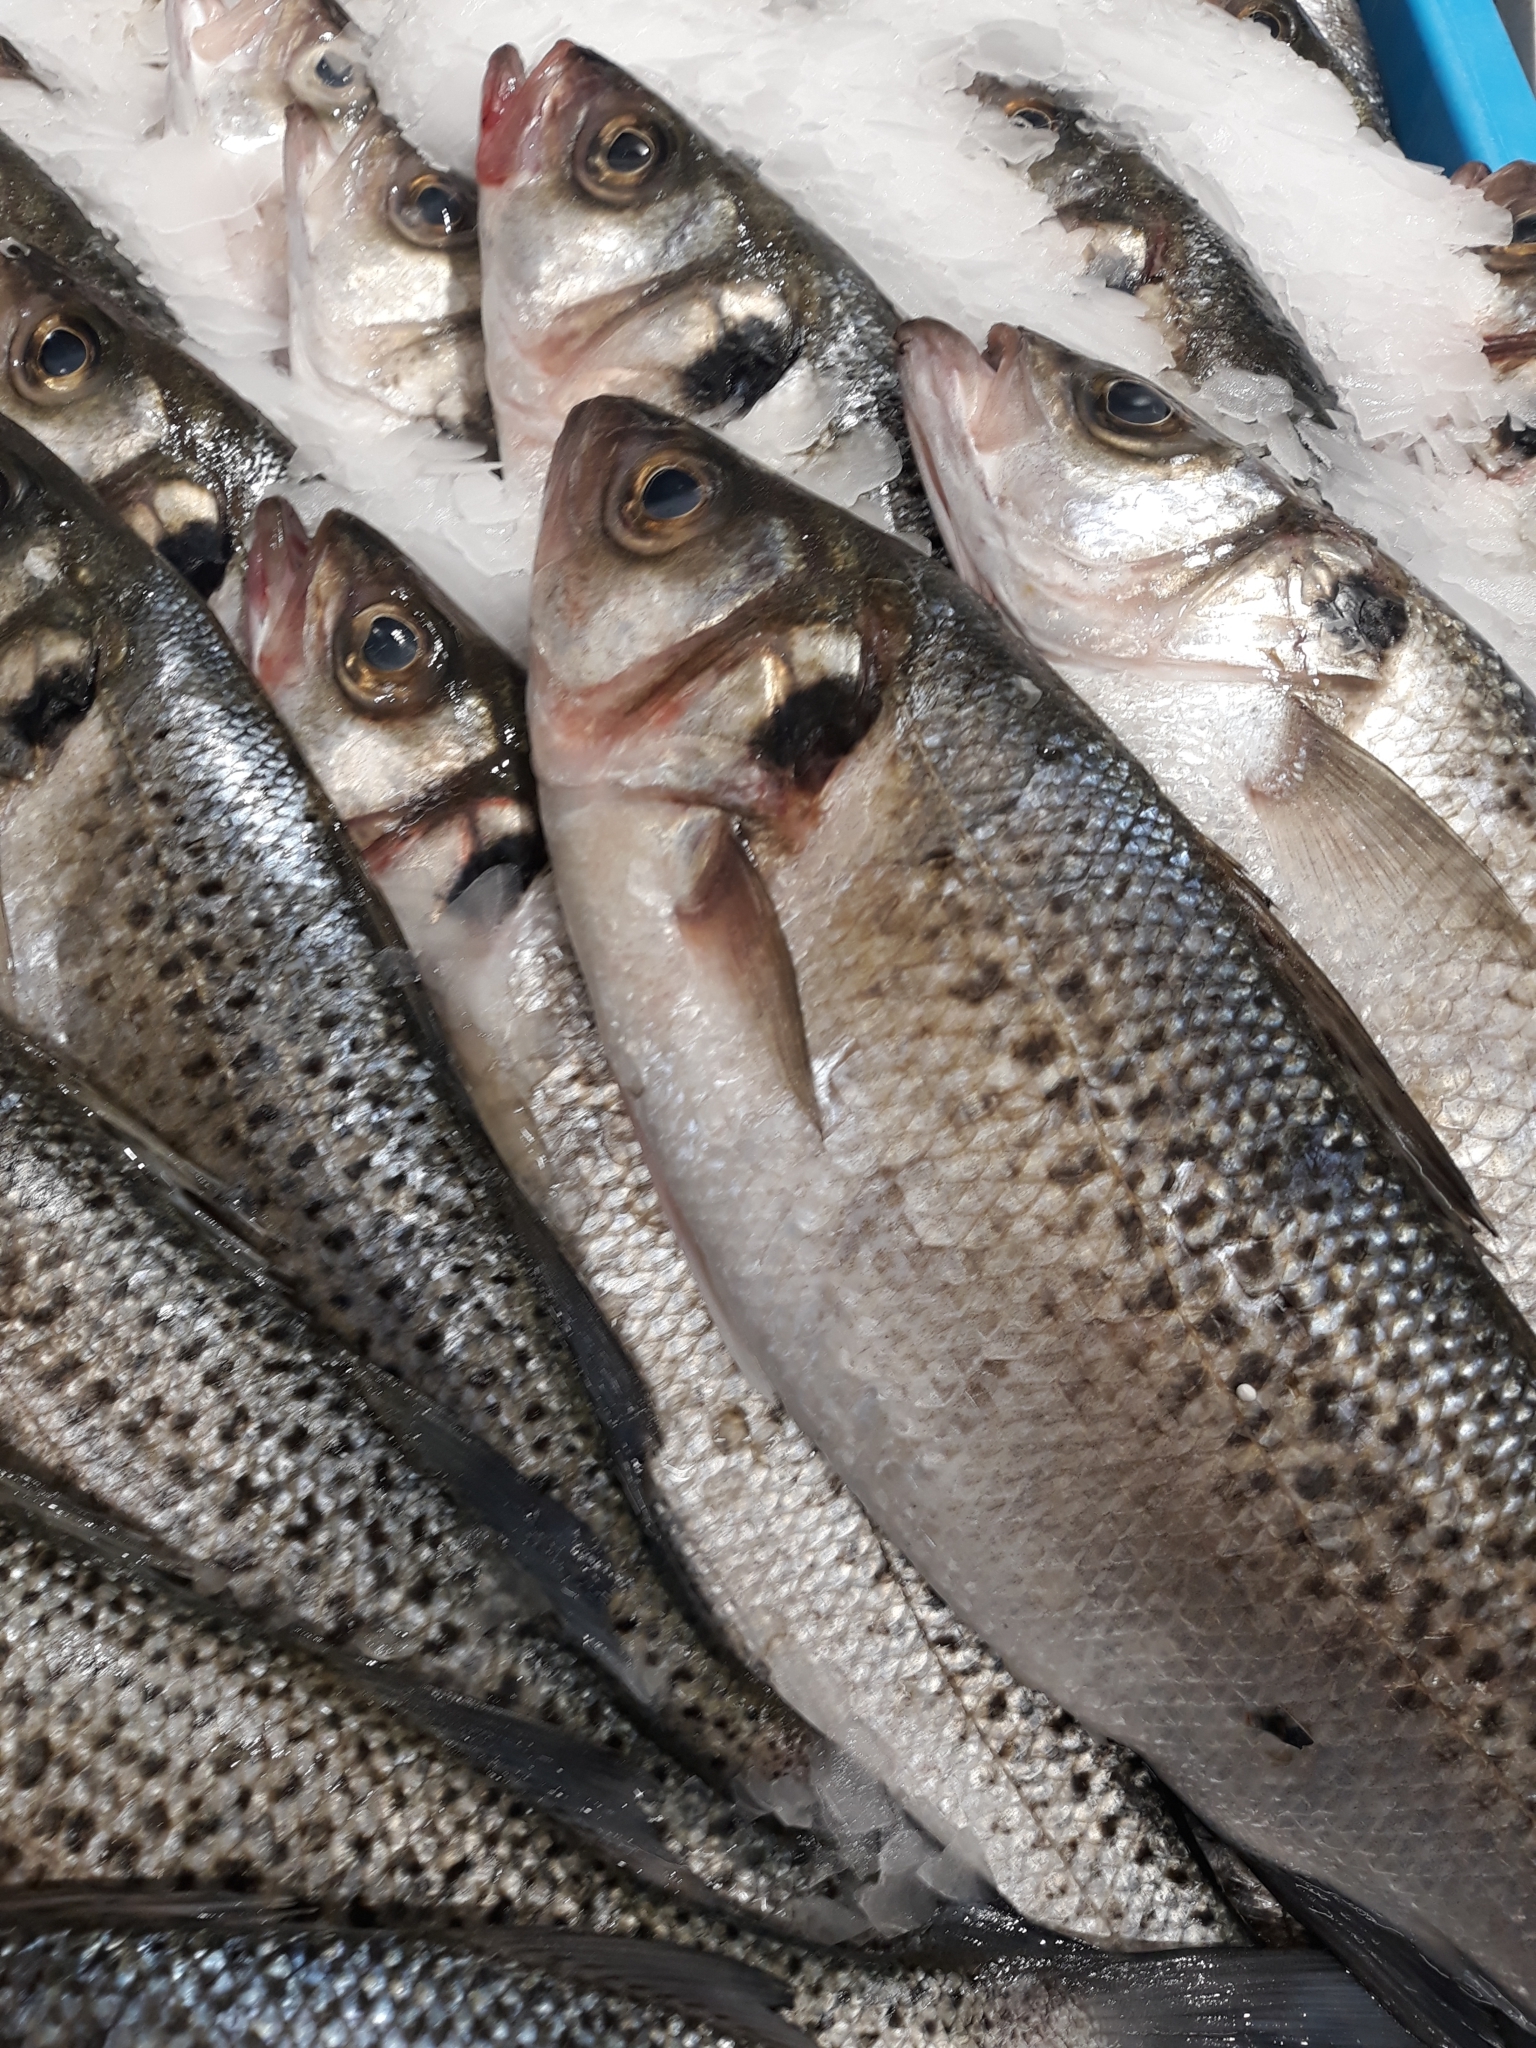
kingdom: Animalia
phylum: Chordata
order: Perciformes
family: Moronidae
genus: Dicentrarchus
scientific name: Dicentrarchus punctatus
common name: Black-spotted bass
